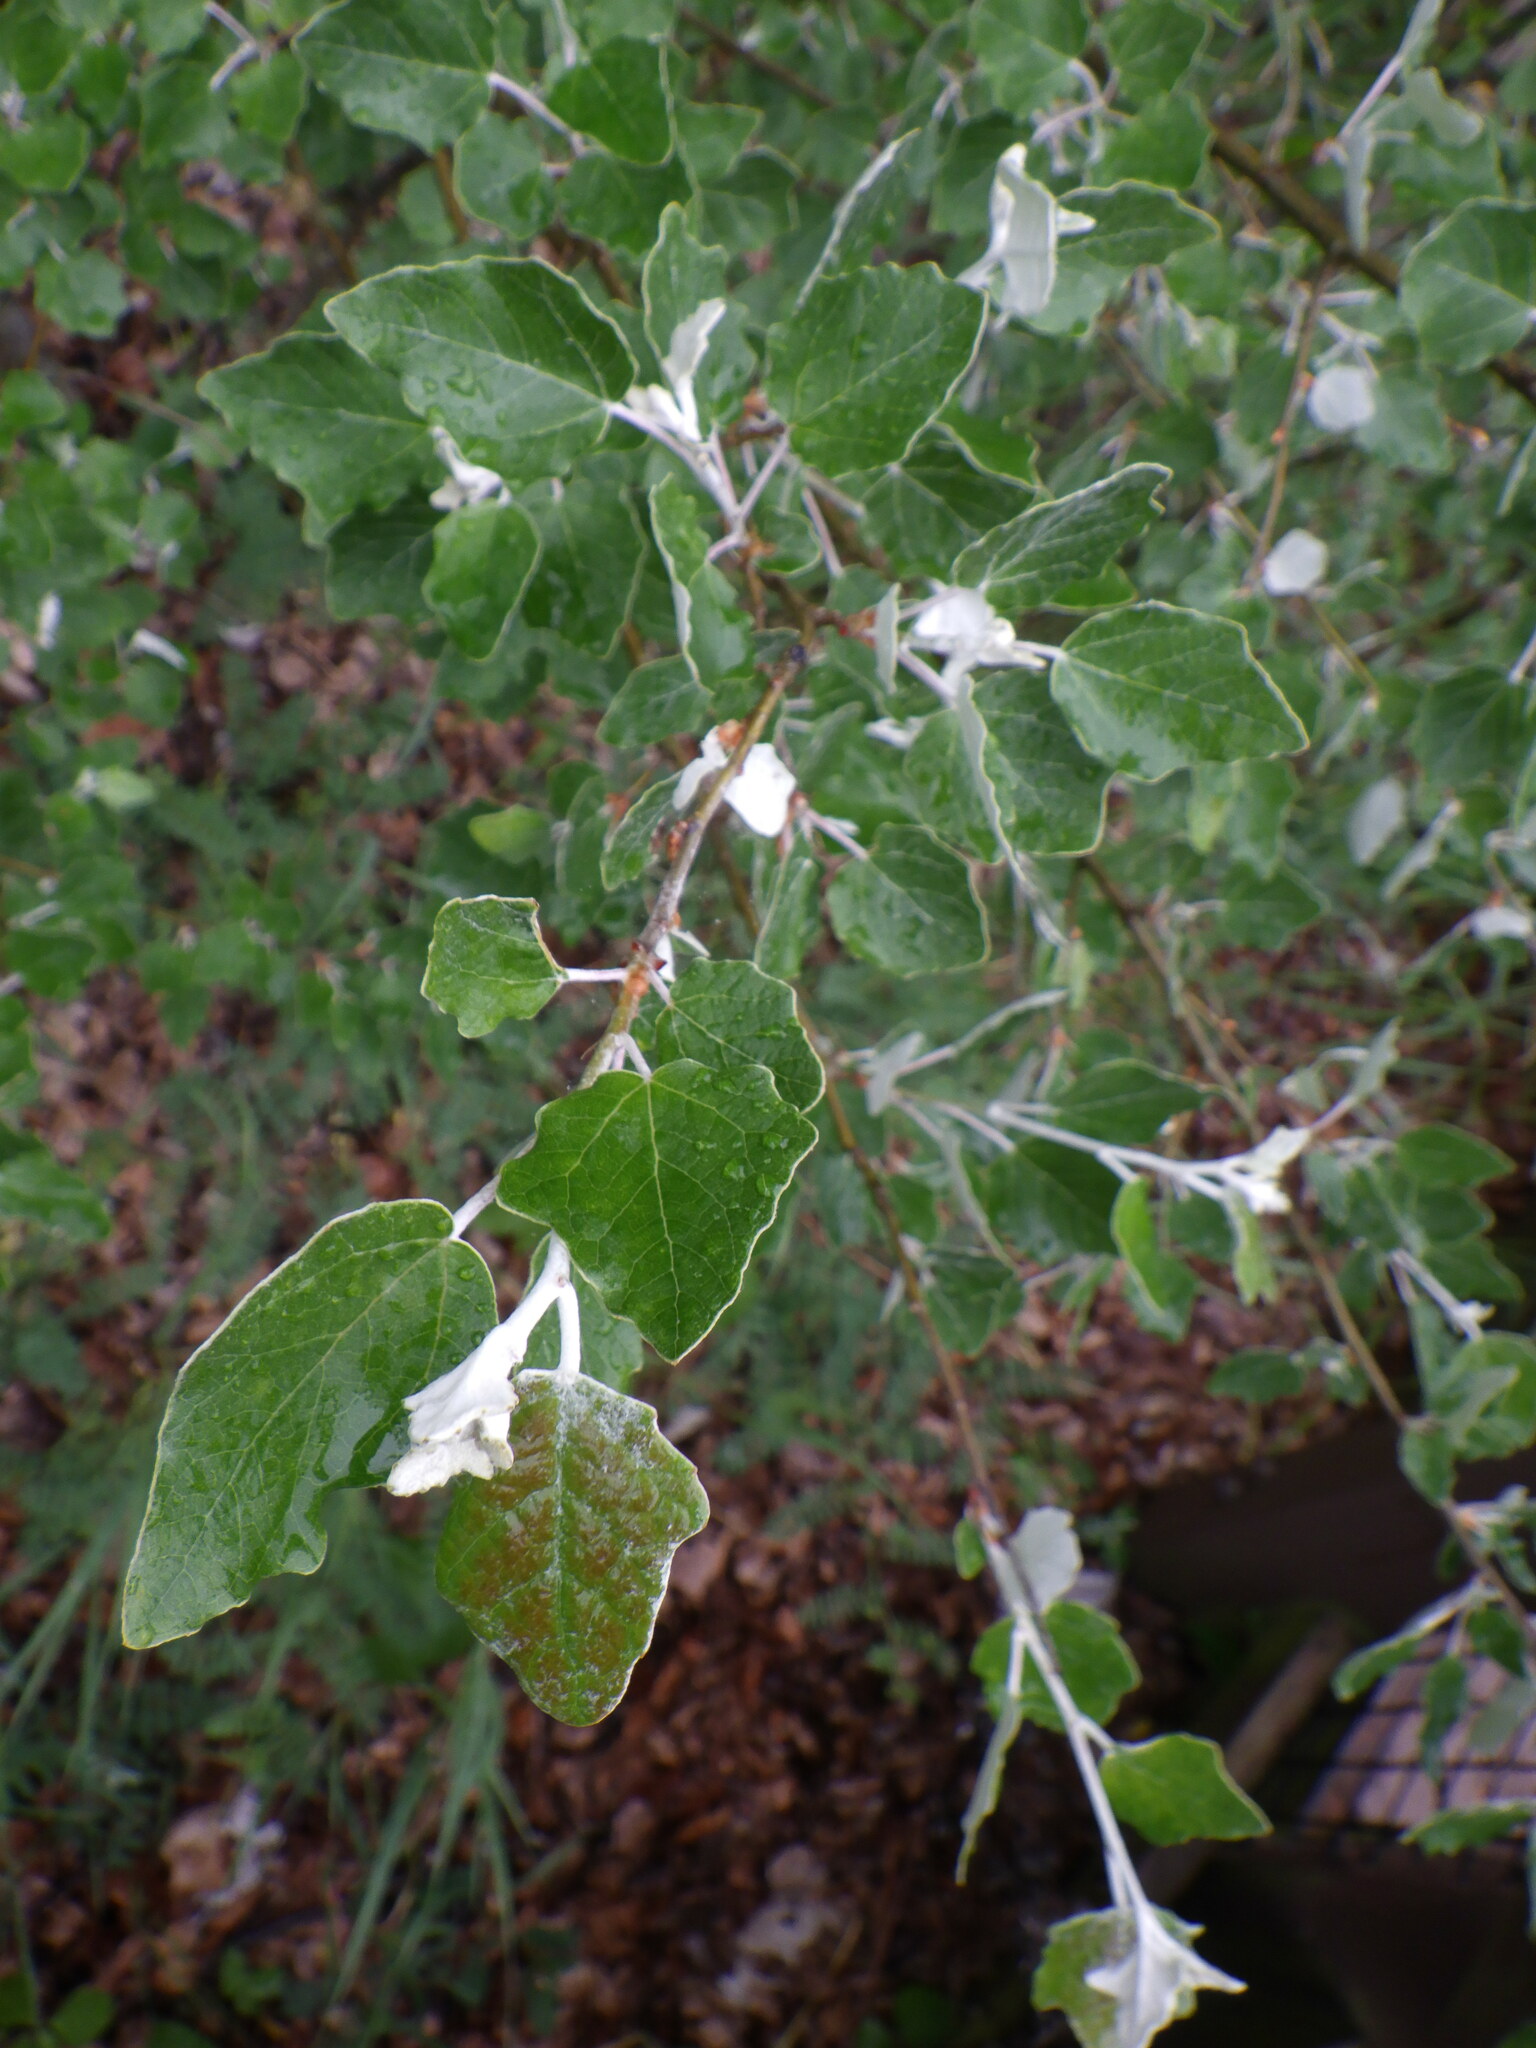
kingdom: Plantae
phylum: Tracheophyta
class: Magnoliopsida
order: Malpighiales
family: Salicaceae
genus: Populus
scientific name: Populus alba
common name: White poplar
